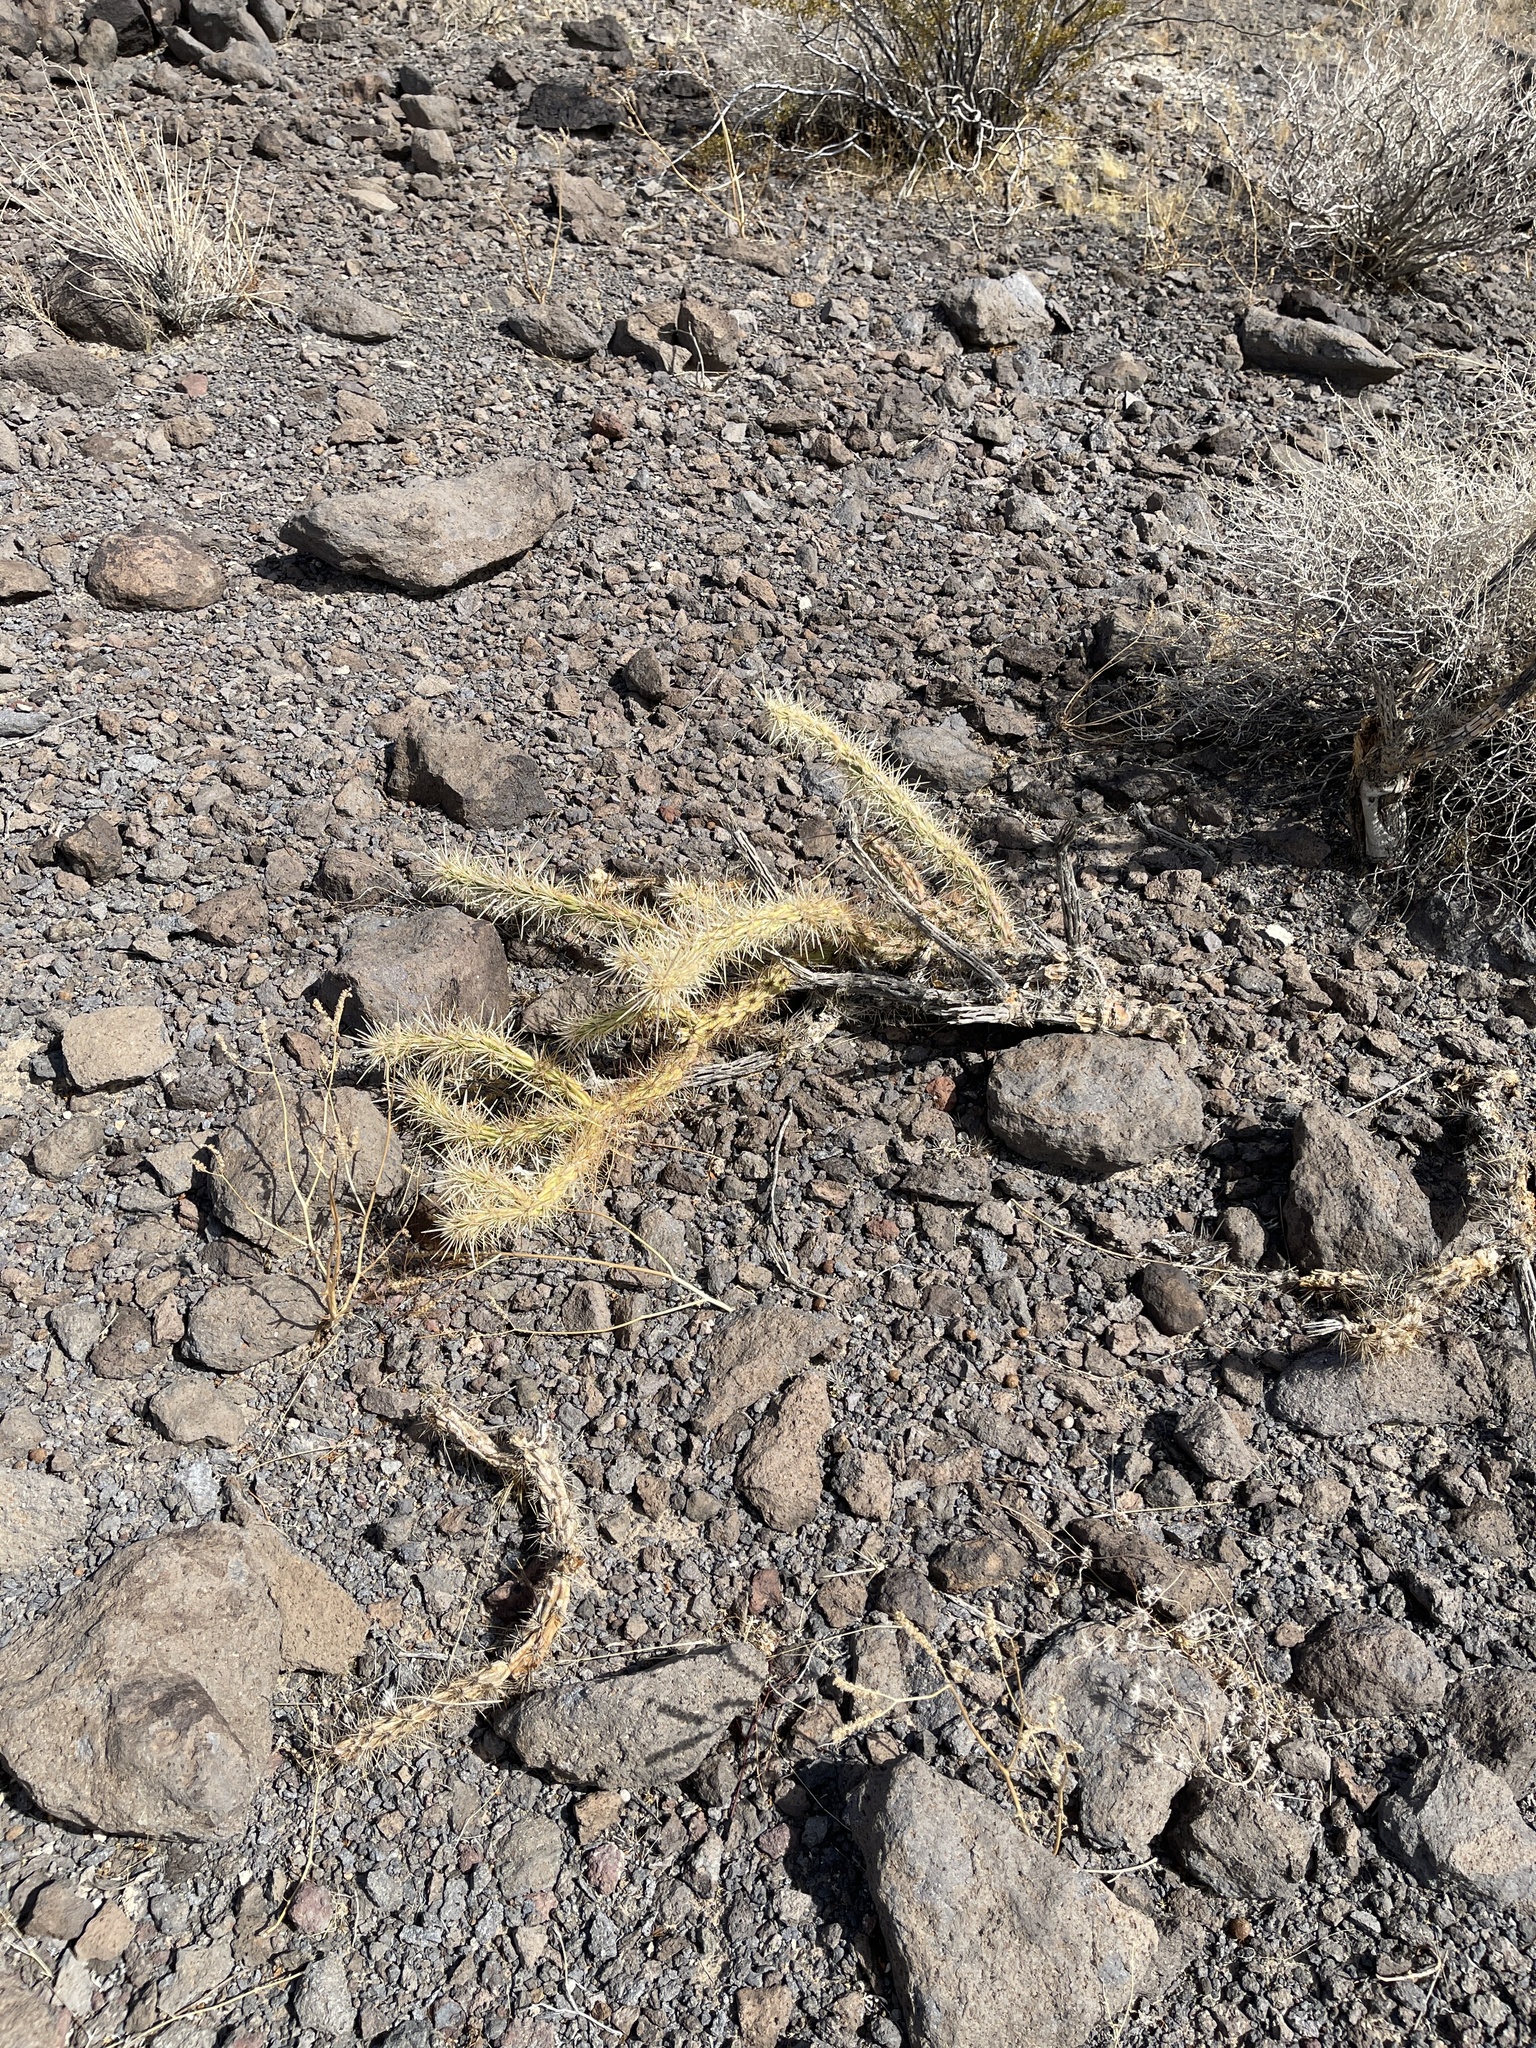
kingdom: Plantae
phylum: Tracheophyta
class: Magnoliopsida
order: Caryophyllales
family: Cactaceae
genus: Cylindropuntia
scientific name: Cylindropuntia acanthocarpa
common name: Buckhorn cholla
